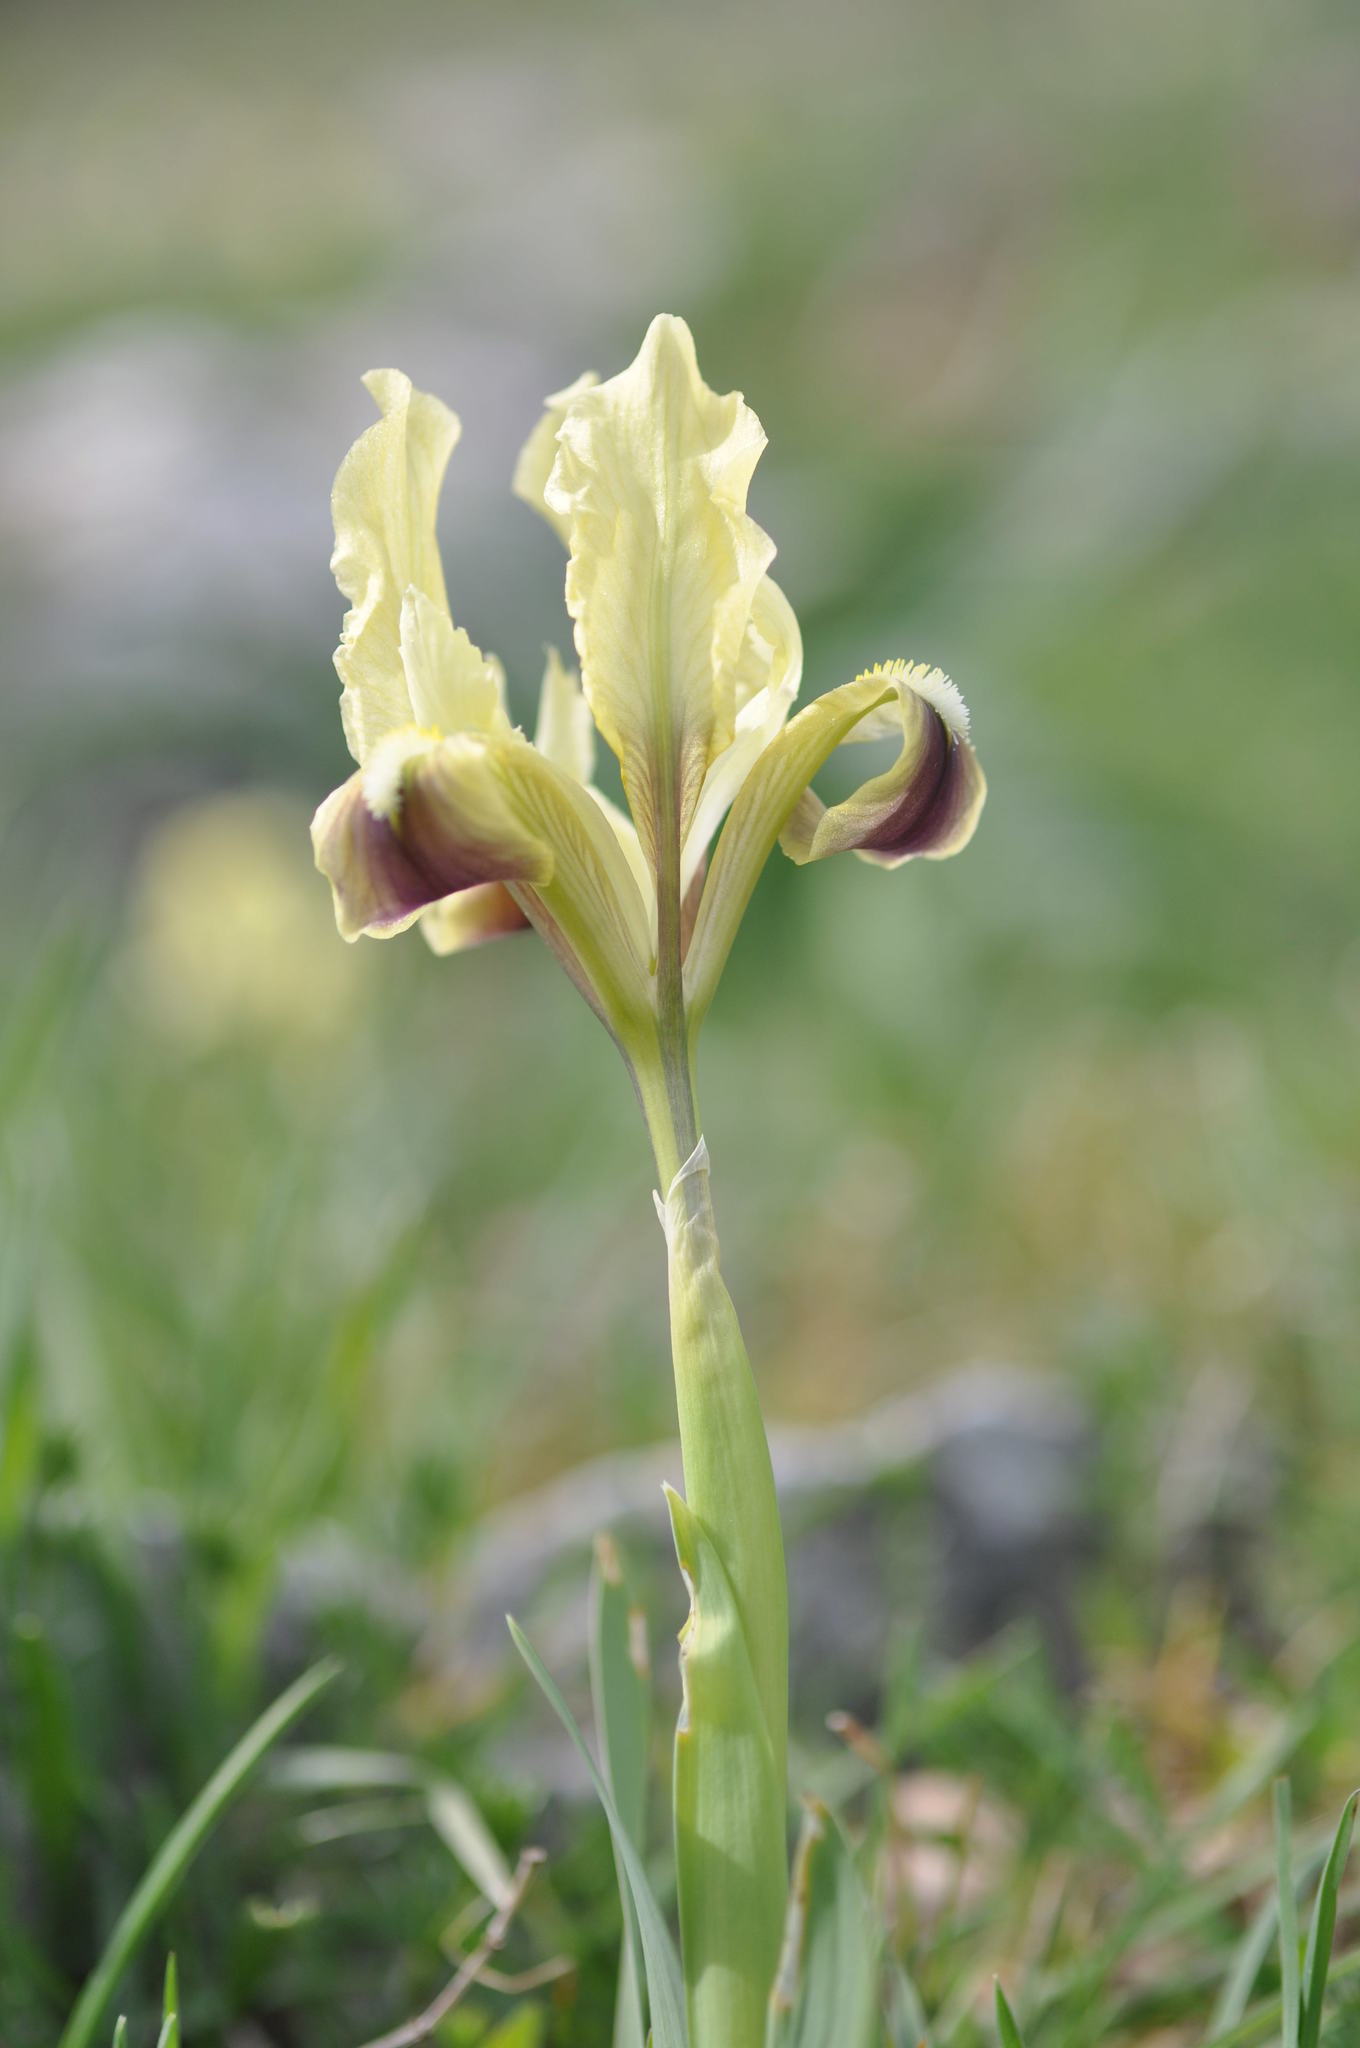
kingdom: Plantae
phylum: Tracheophyta
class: Liliopsida
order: Asparagales
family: Iridaceae
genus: Iris
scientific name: Iris pseudopumila
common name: Southern dwarf iris
